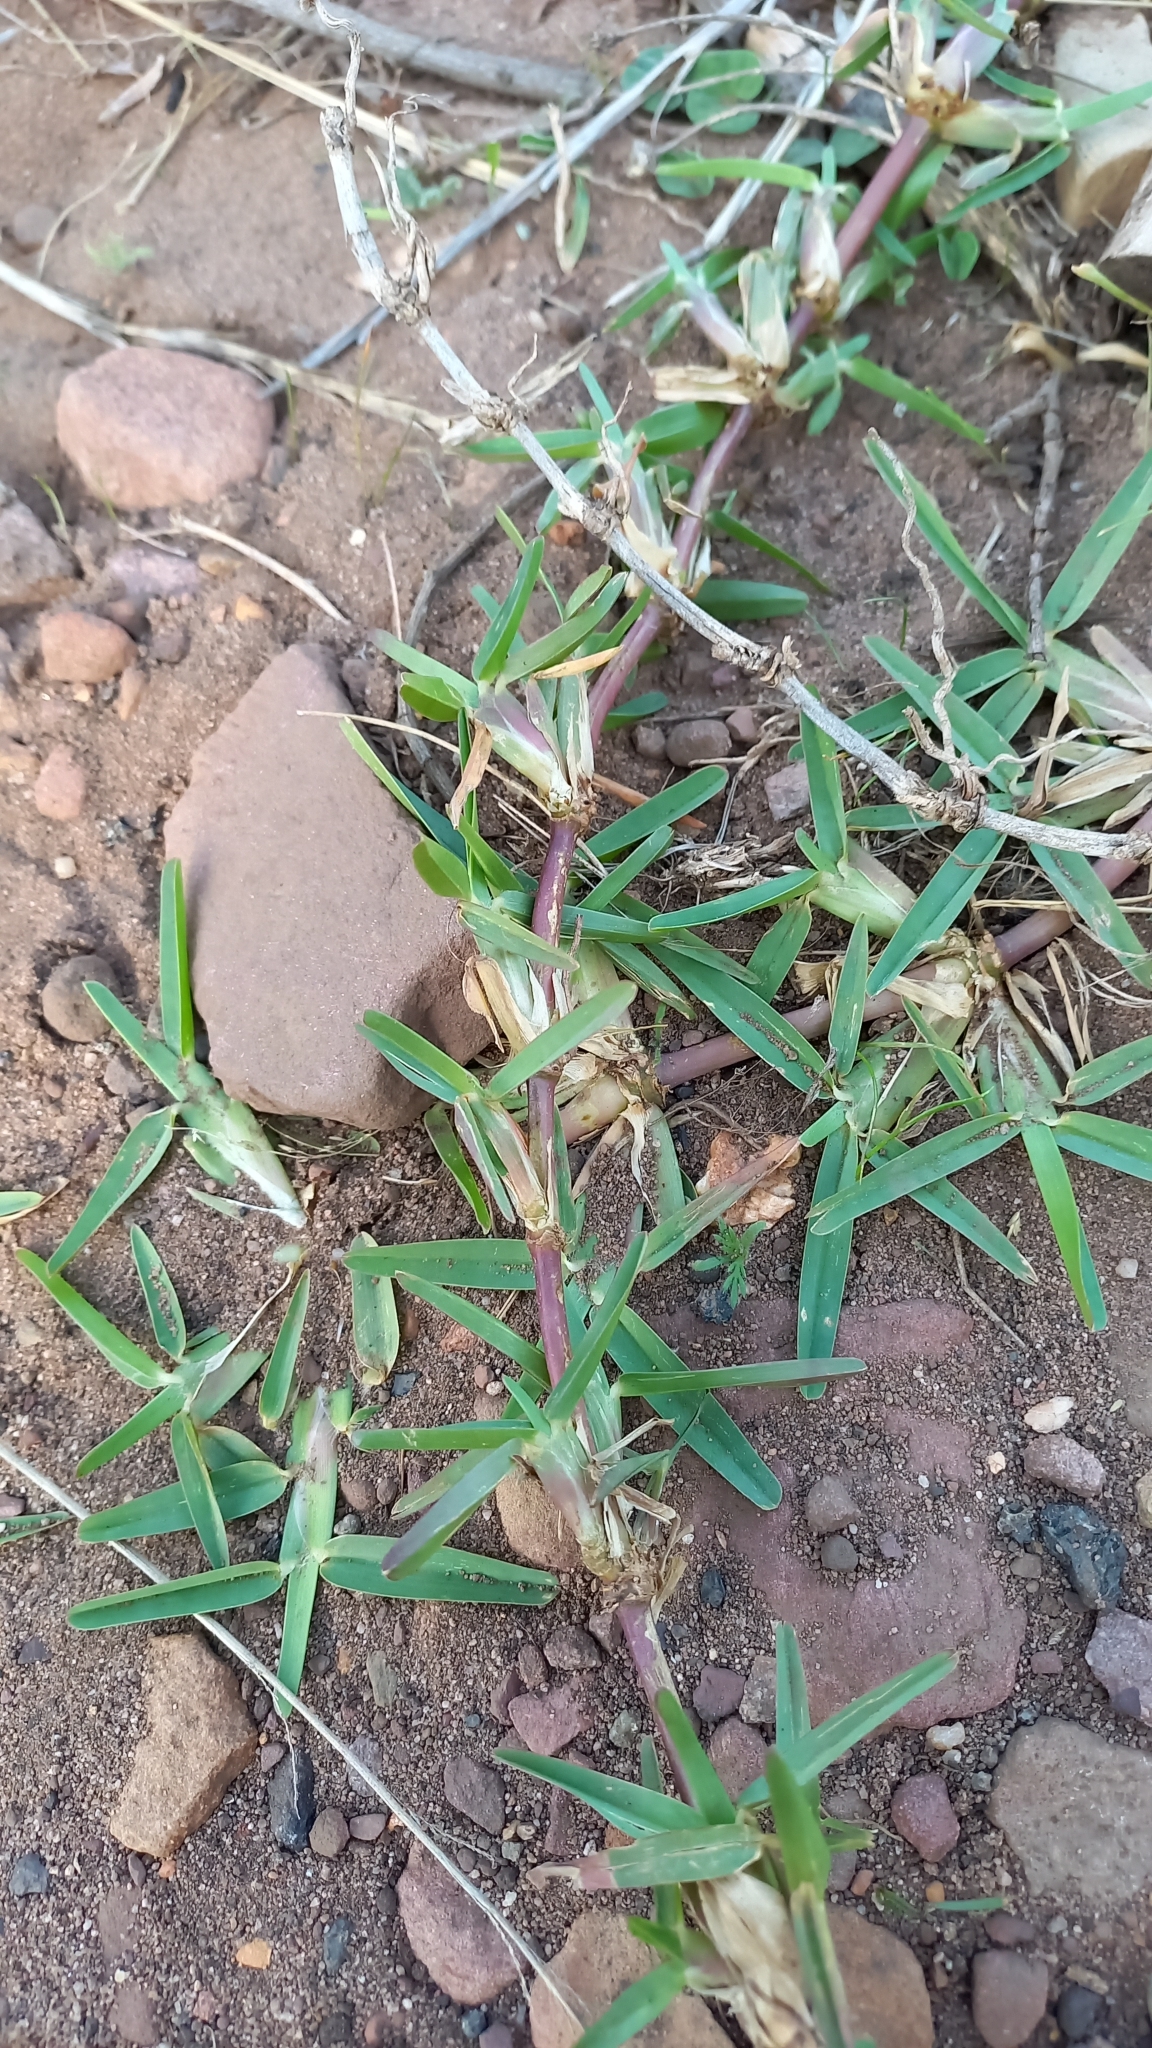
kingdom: Plantae
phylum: Tracheophyta
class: Liliopsida
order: Poales
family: Poaceae
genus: Stenotaphrum
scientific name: Stenotaphrum secundatum
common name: St. augustine grass
